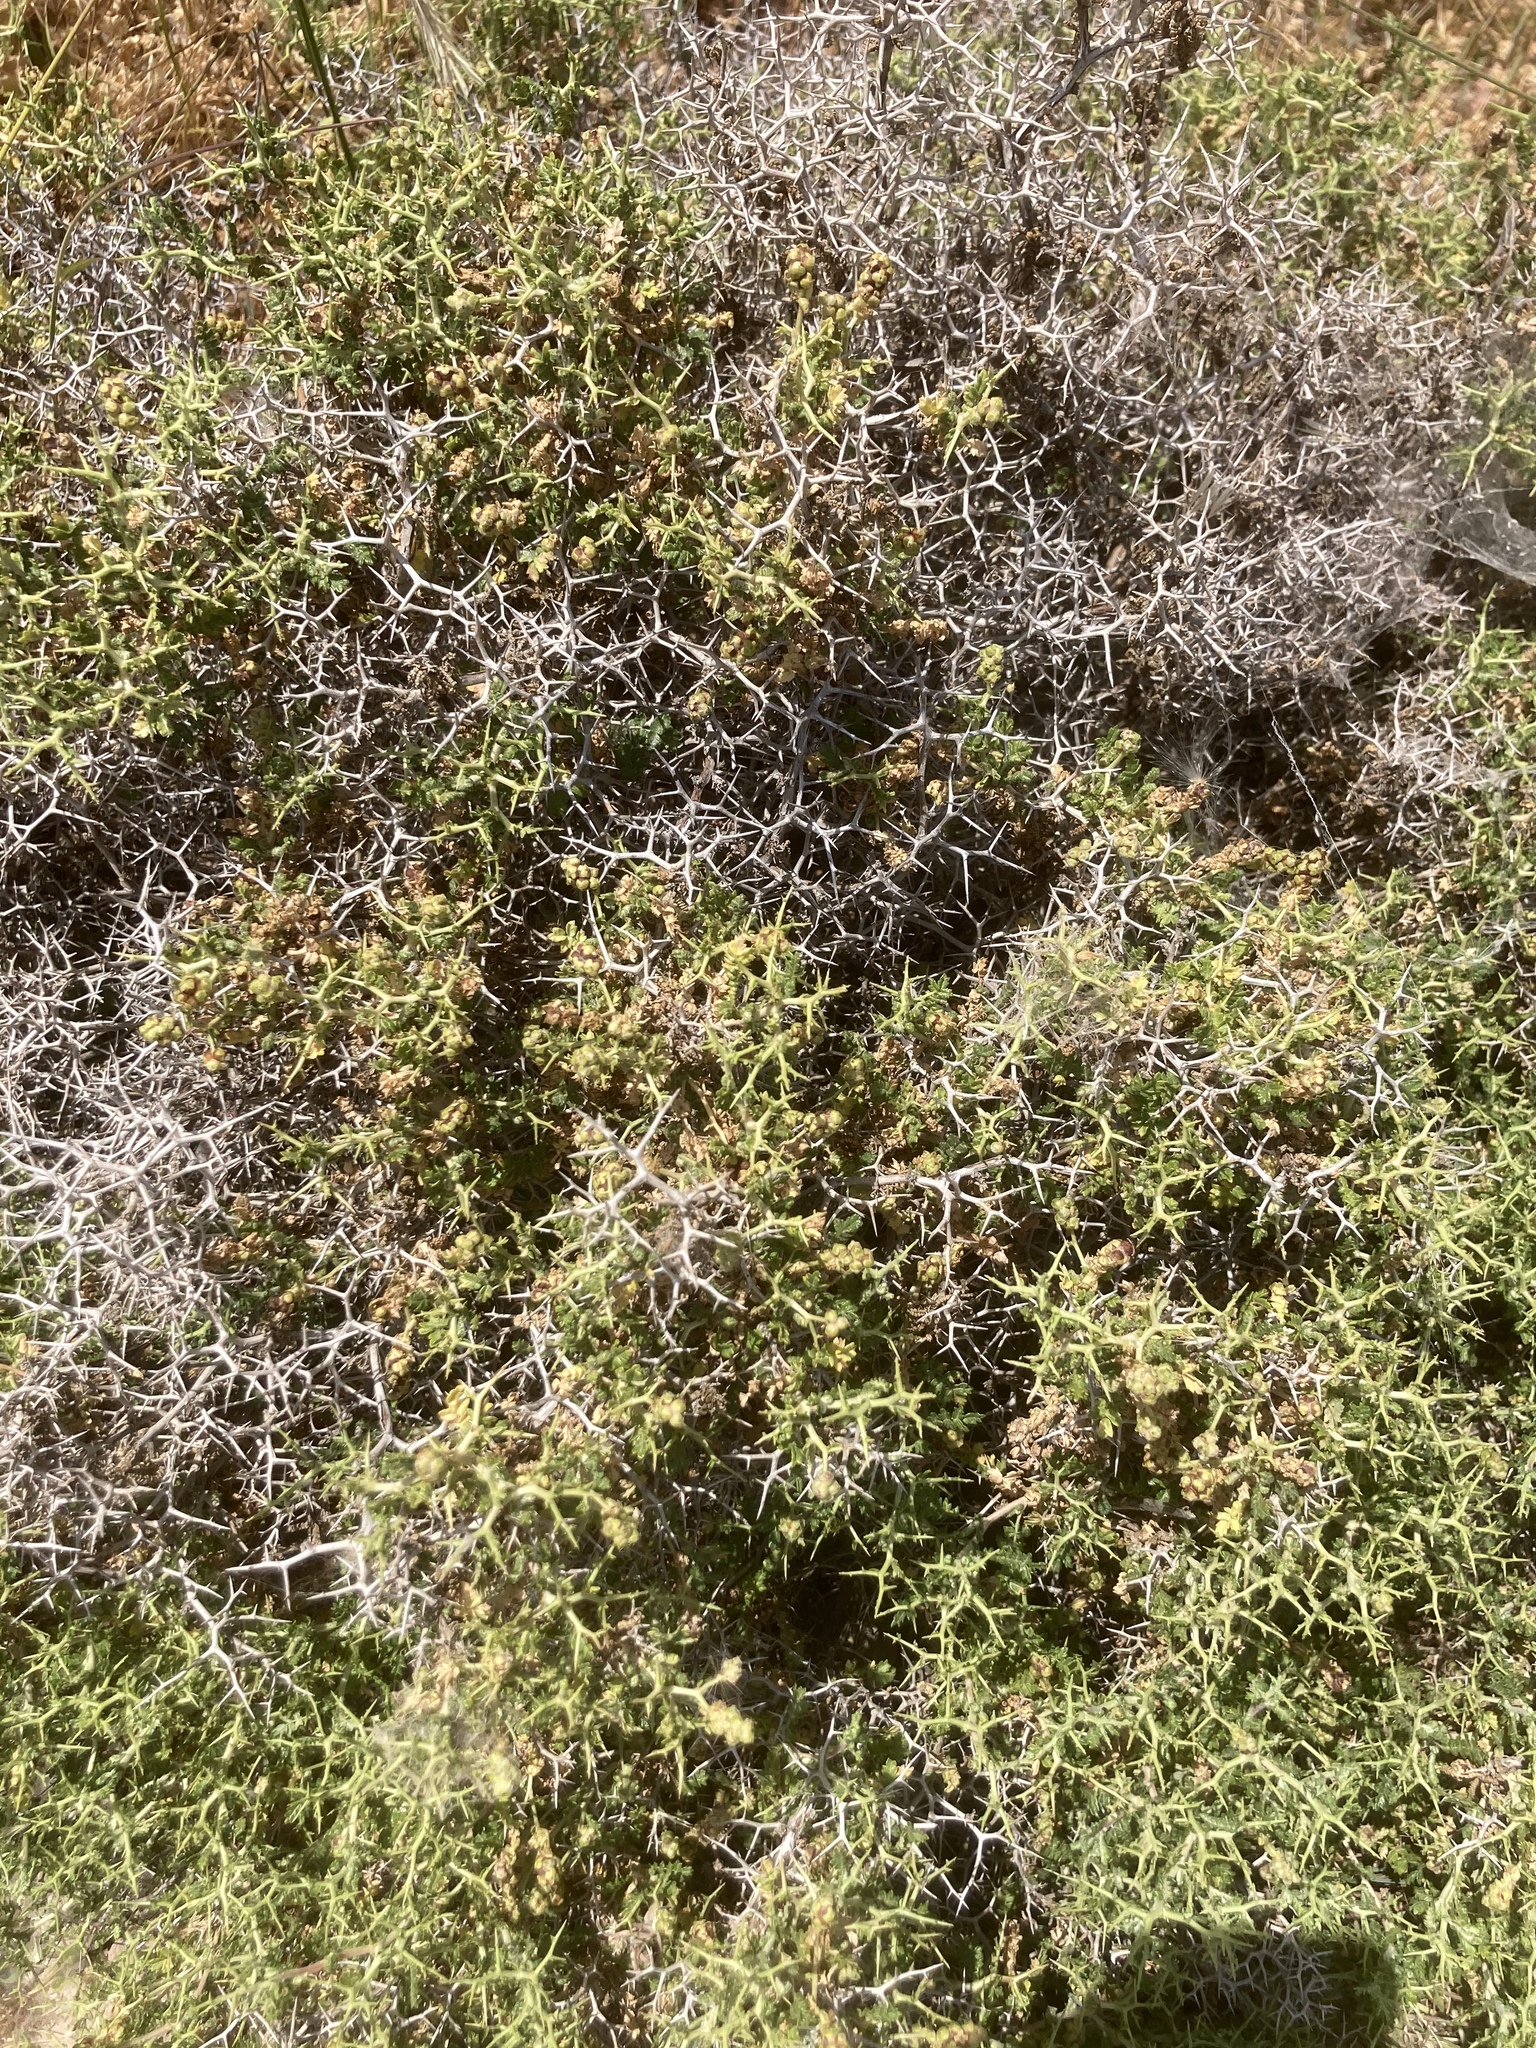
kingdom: Plantae
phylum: Tracheophyta
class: Magnoliopsida
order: Rosales
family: Rosaceae
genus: Sarcopoterium
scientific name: Sarcopoterium spinosum
